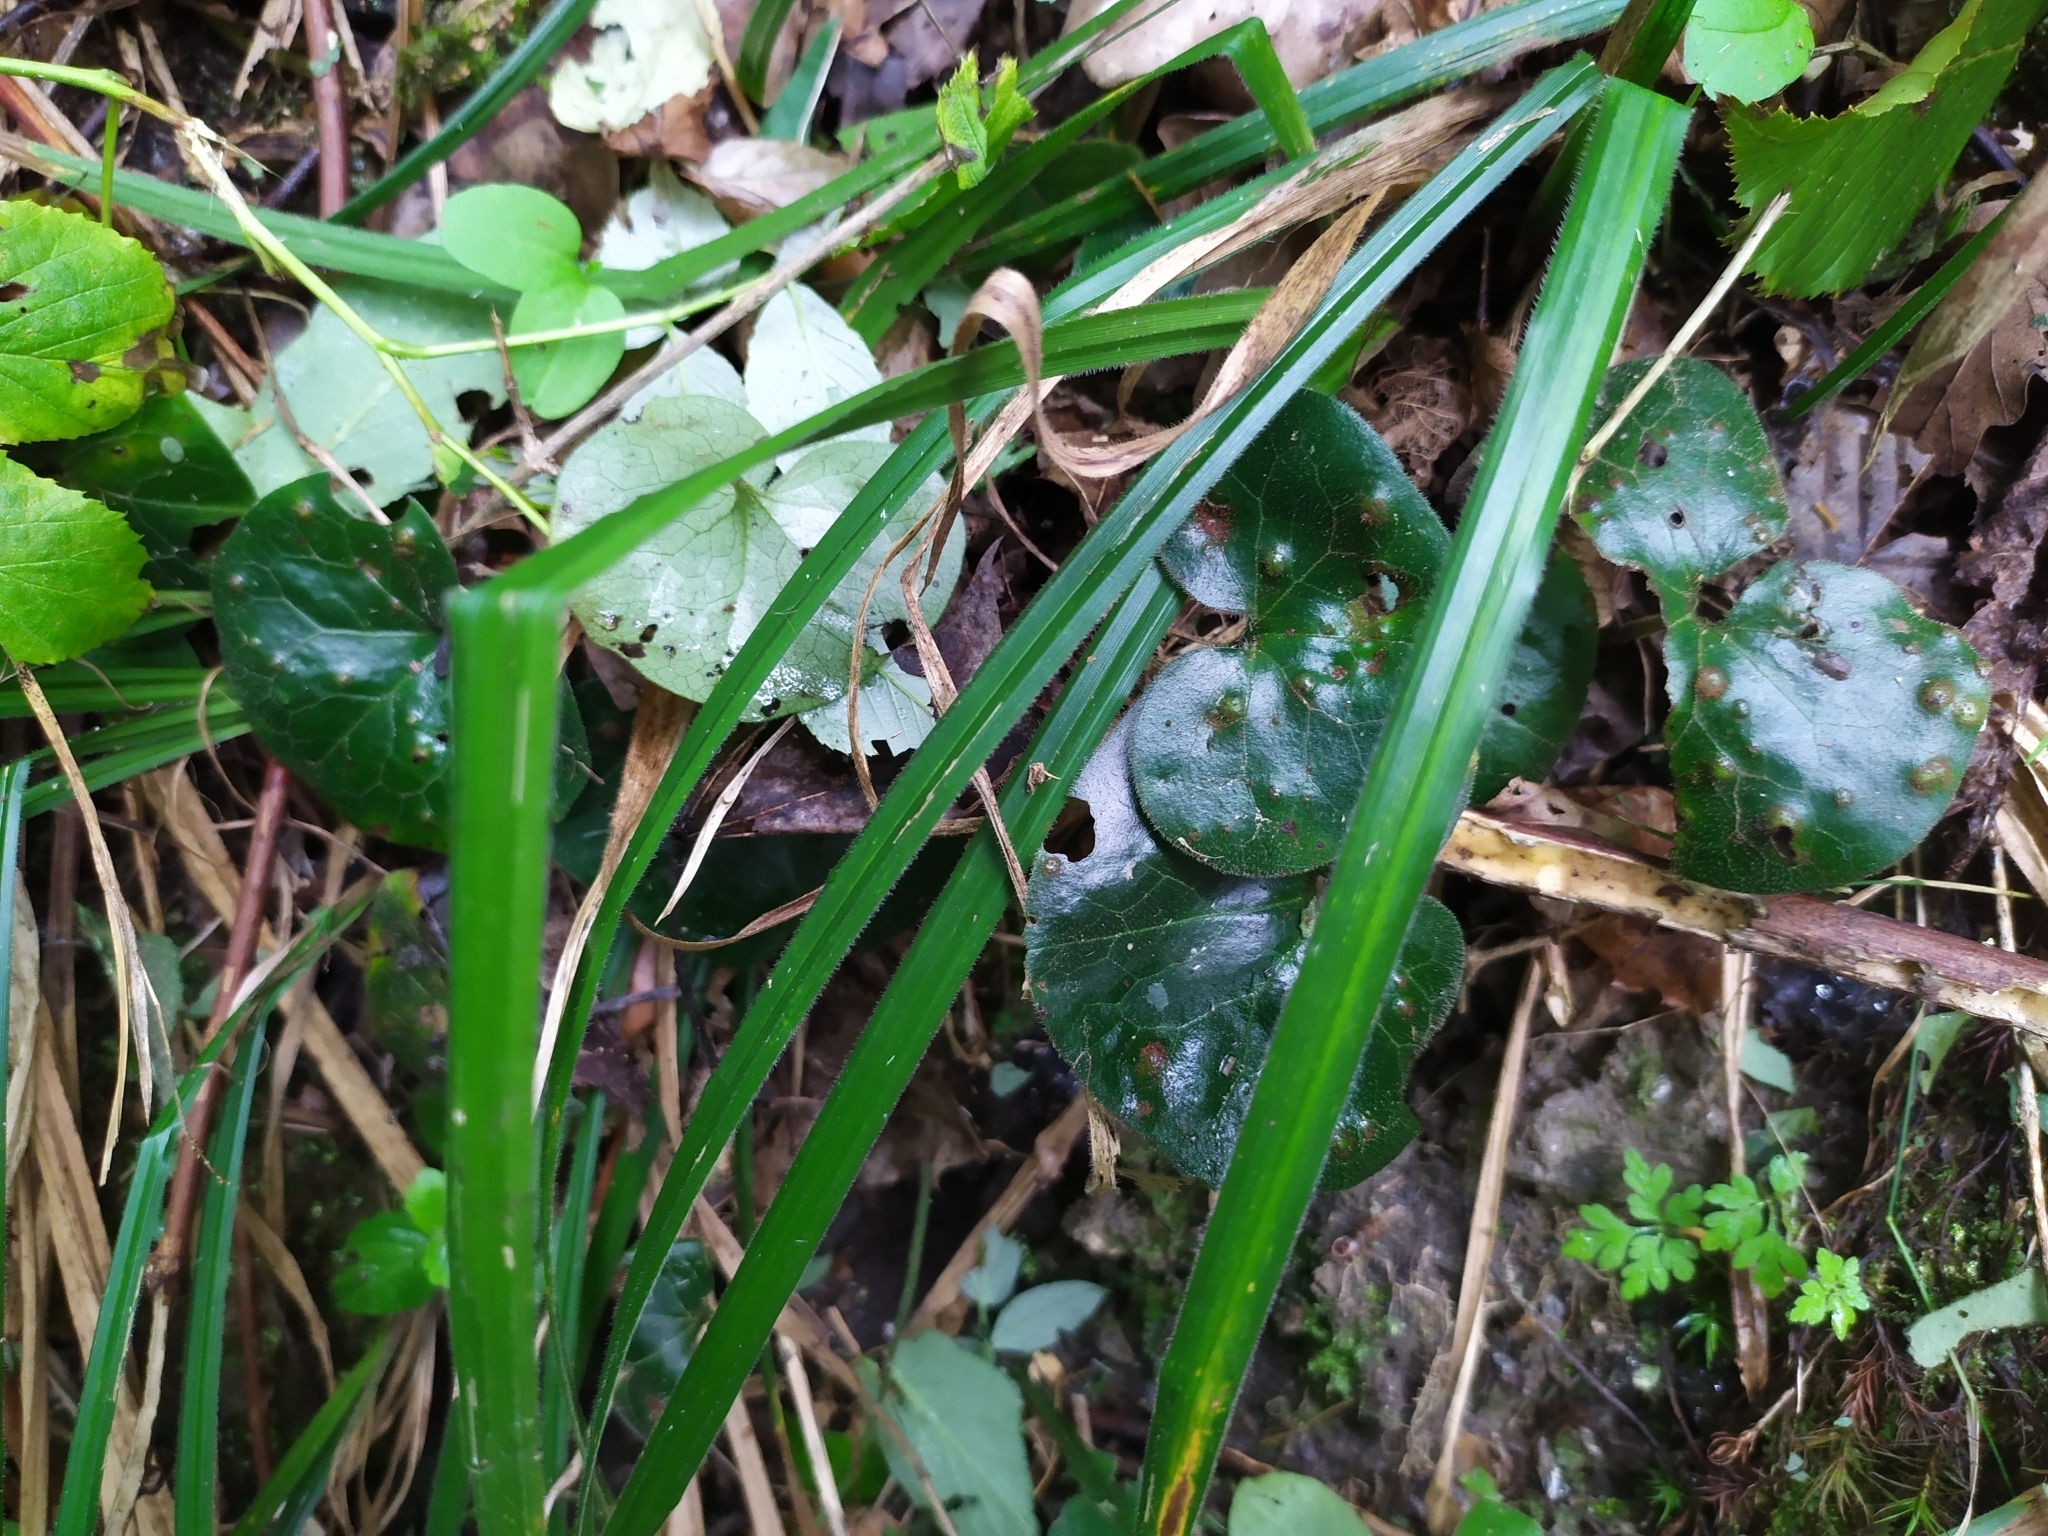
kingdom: Plantae
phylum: Tracheophyta
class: Magnoliopsida
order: Piperales
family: Aristolochiaceae
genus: Asarum
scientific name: Asarum europaeum
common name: Asarabacca
